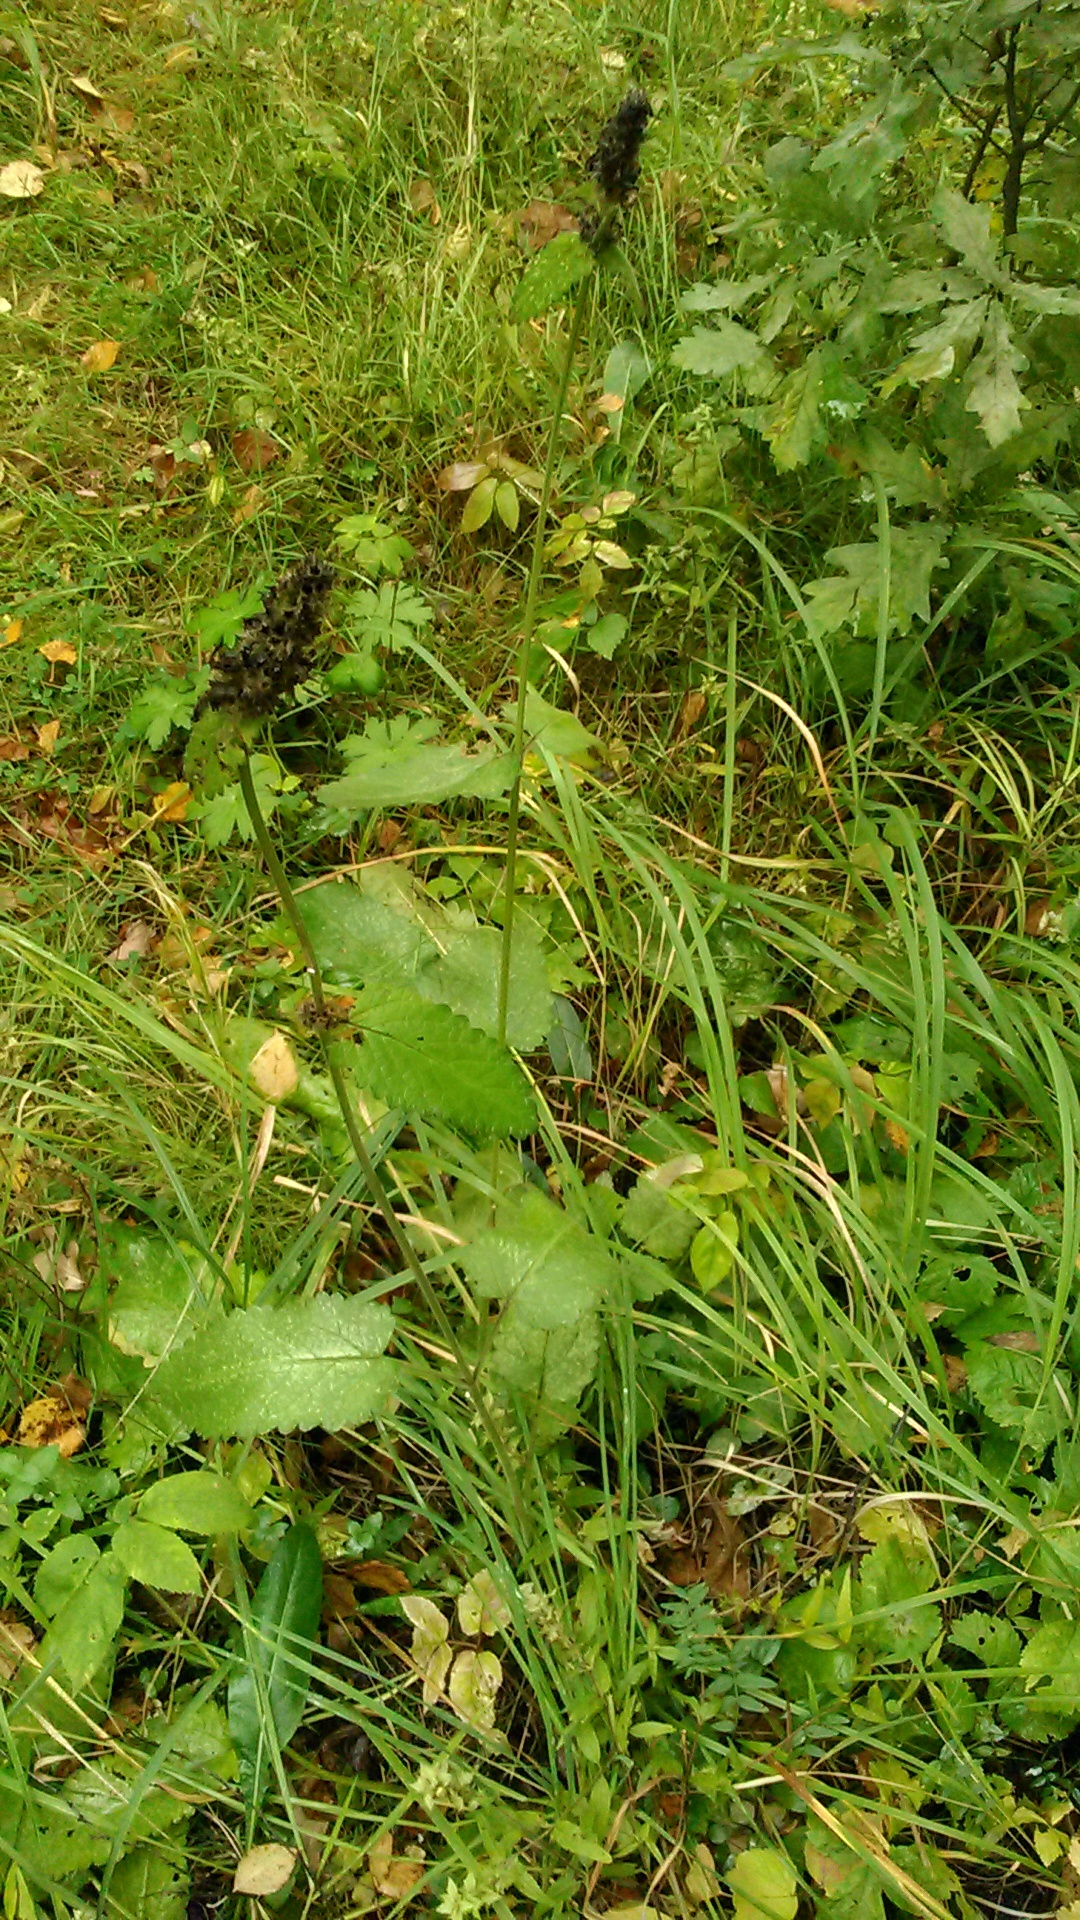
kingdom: Plantae
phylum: Tracheophyta
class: Magnoliopsida
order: Lamiales
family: Lamiaceae
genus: Betonica
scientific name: Betonica officinalis
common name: Bishop's-wort
